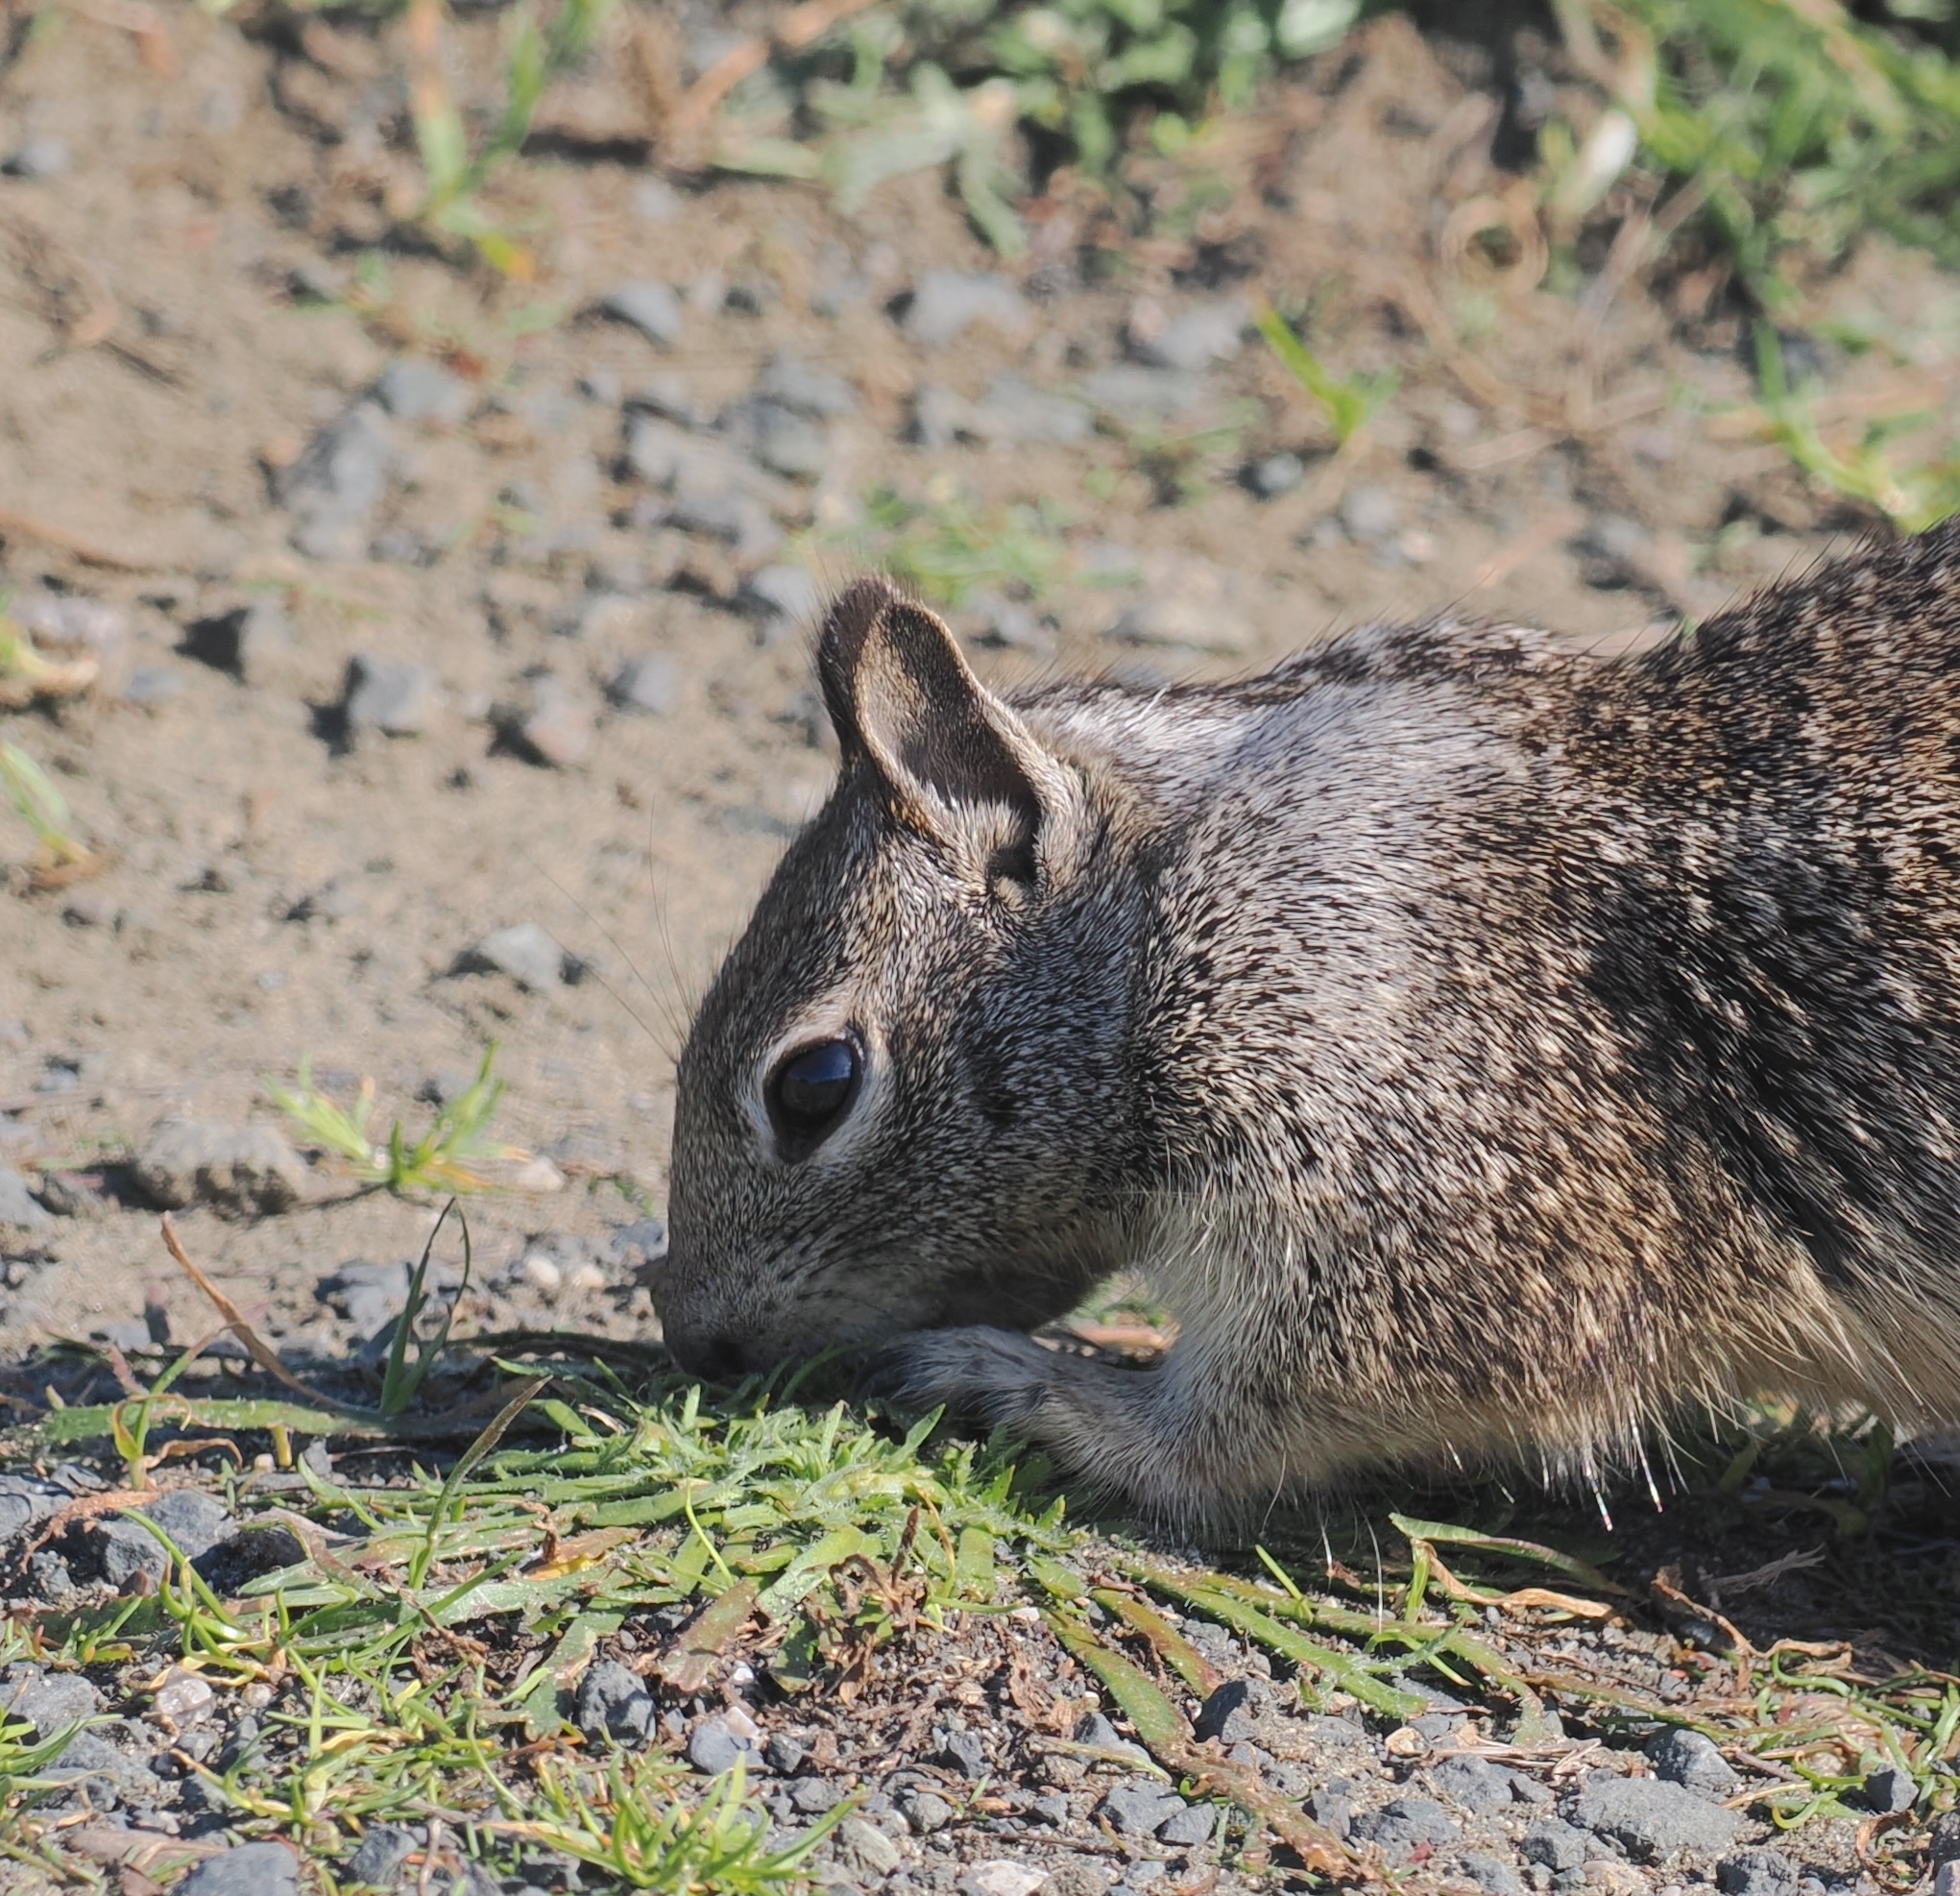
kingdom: Animalia
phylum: Chordata
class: Mammalia
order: Rodentia
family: Sciuridae
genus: Otospermophilus
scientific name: Otospermophilus beecheyi
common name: California ground squirrel
